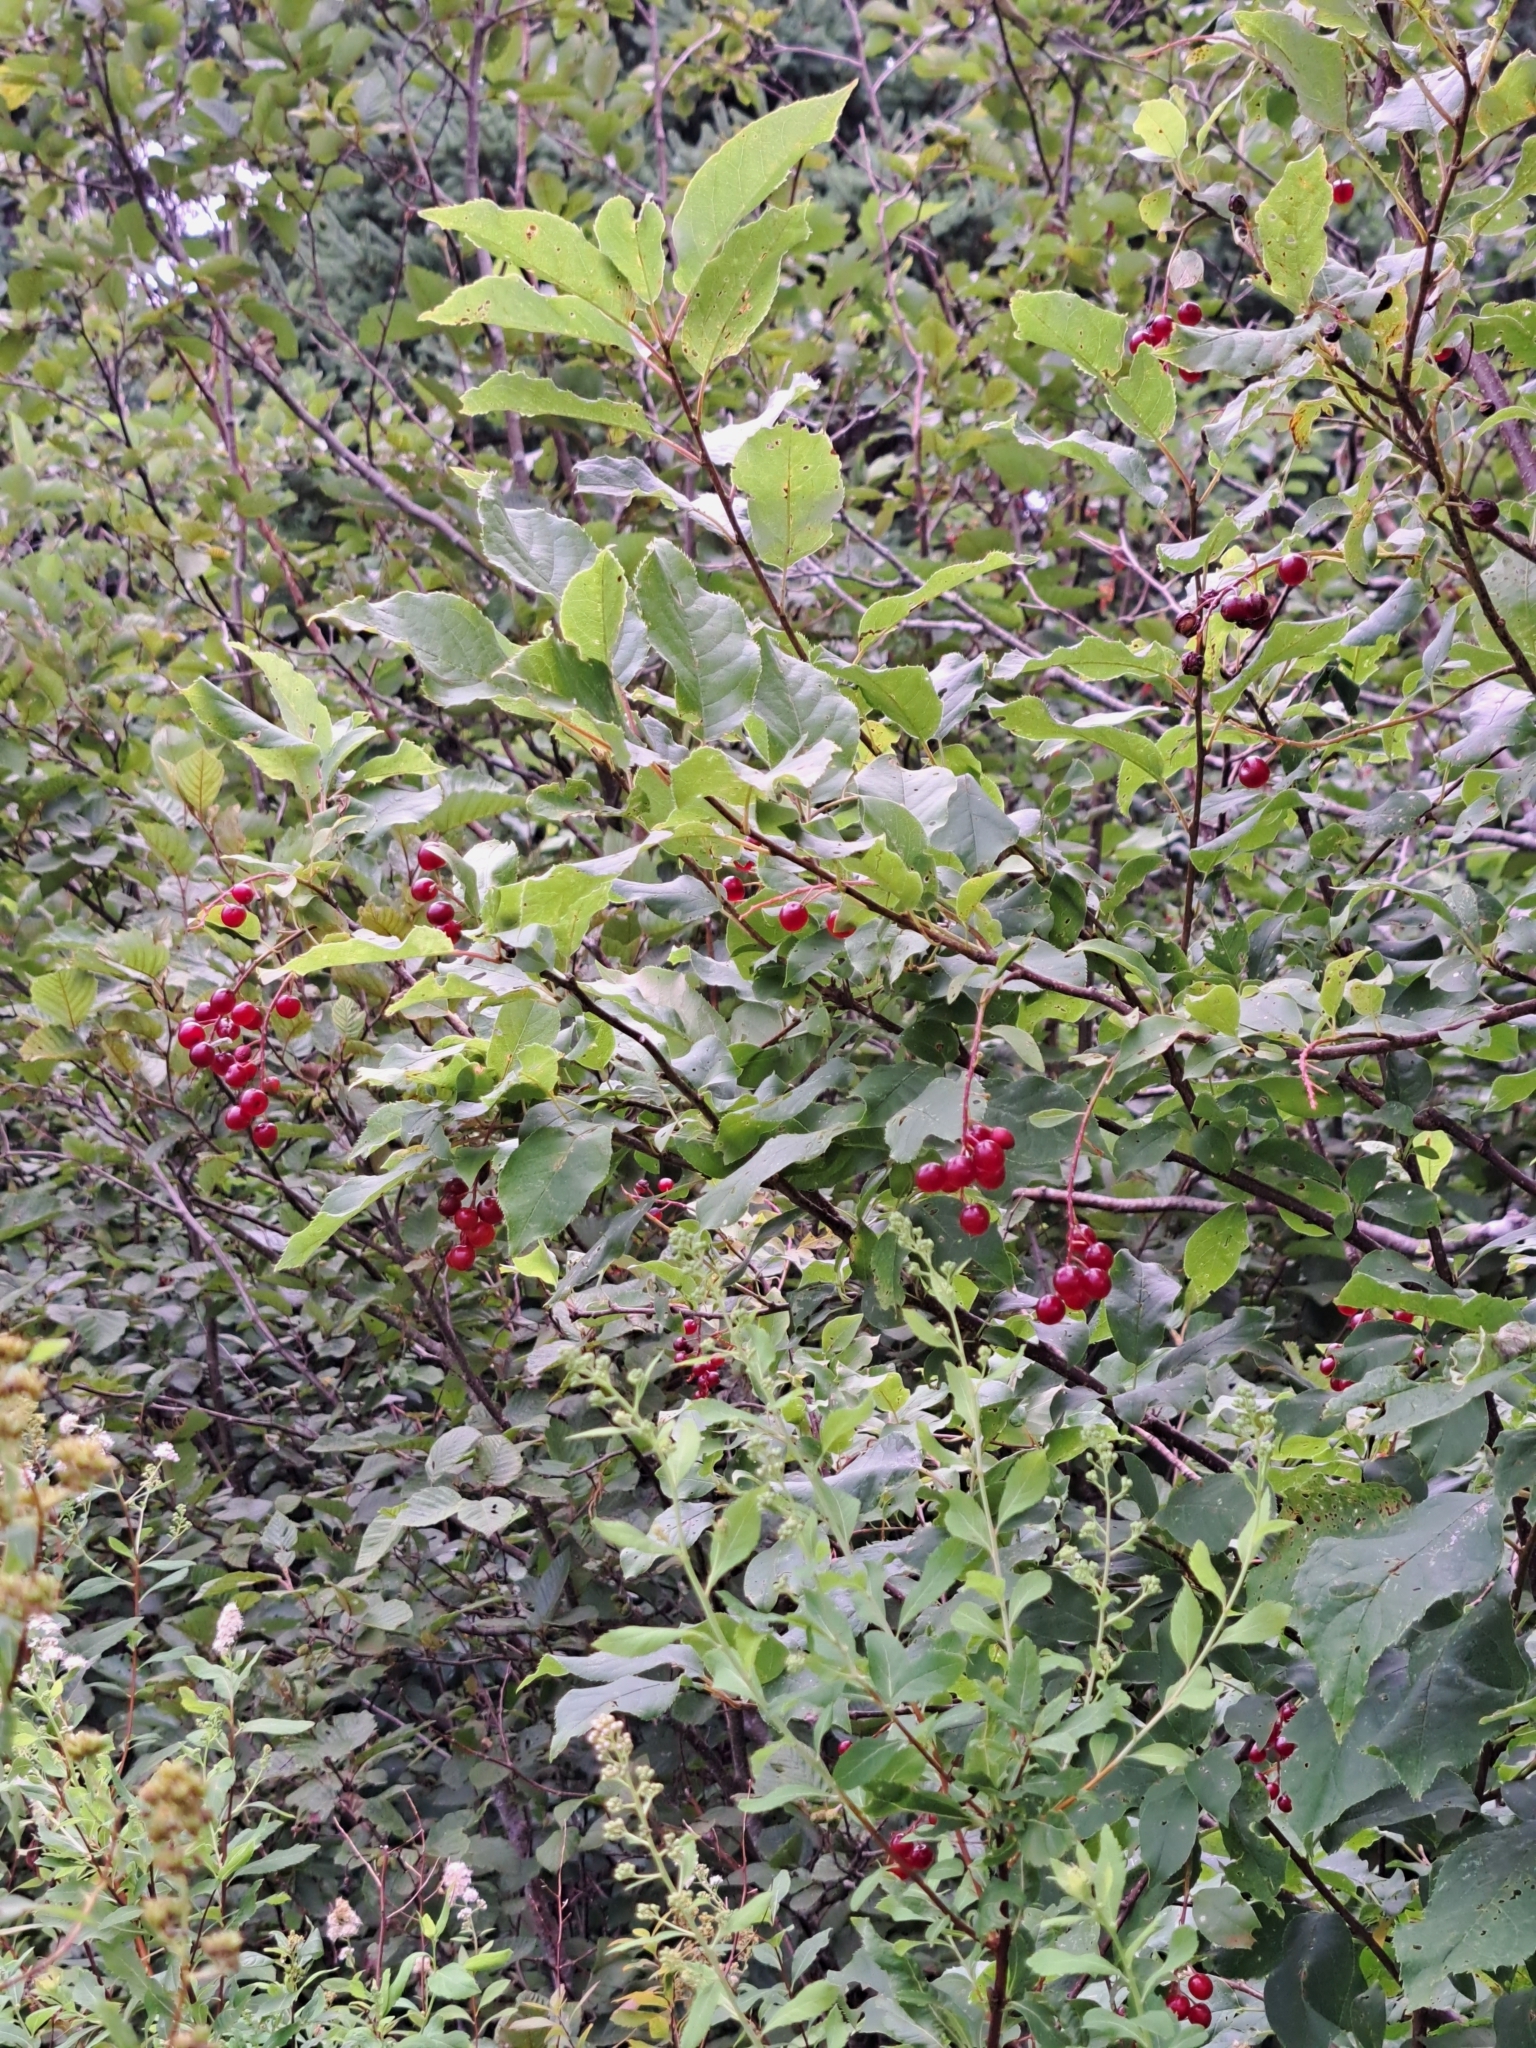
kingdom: Plantae
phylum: Tracheophyta
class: Magnoliopsida
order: Rosales
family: Rosaceae
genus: Prunus
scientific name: Prunus virginiana
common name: Chokecherry
